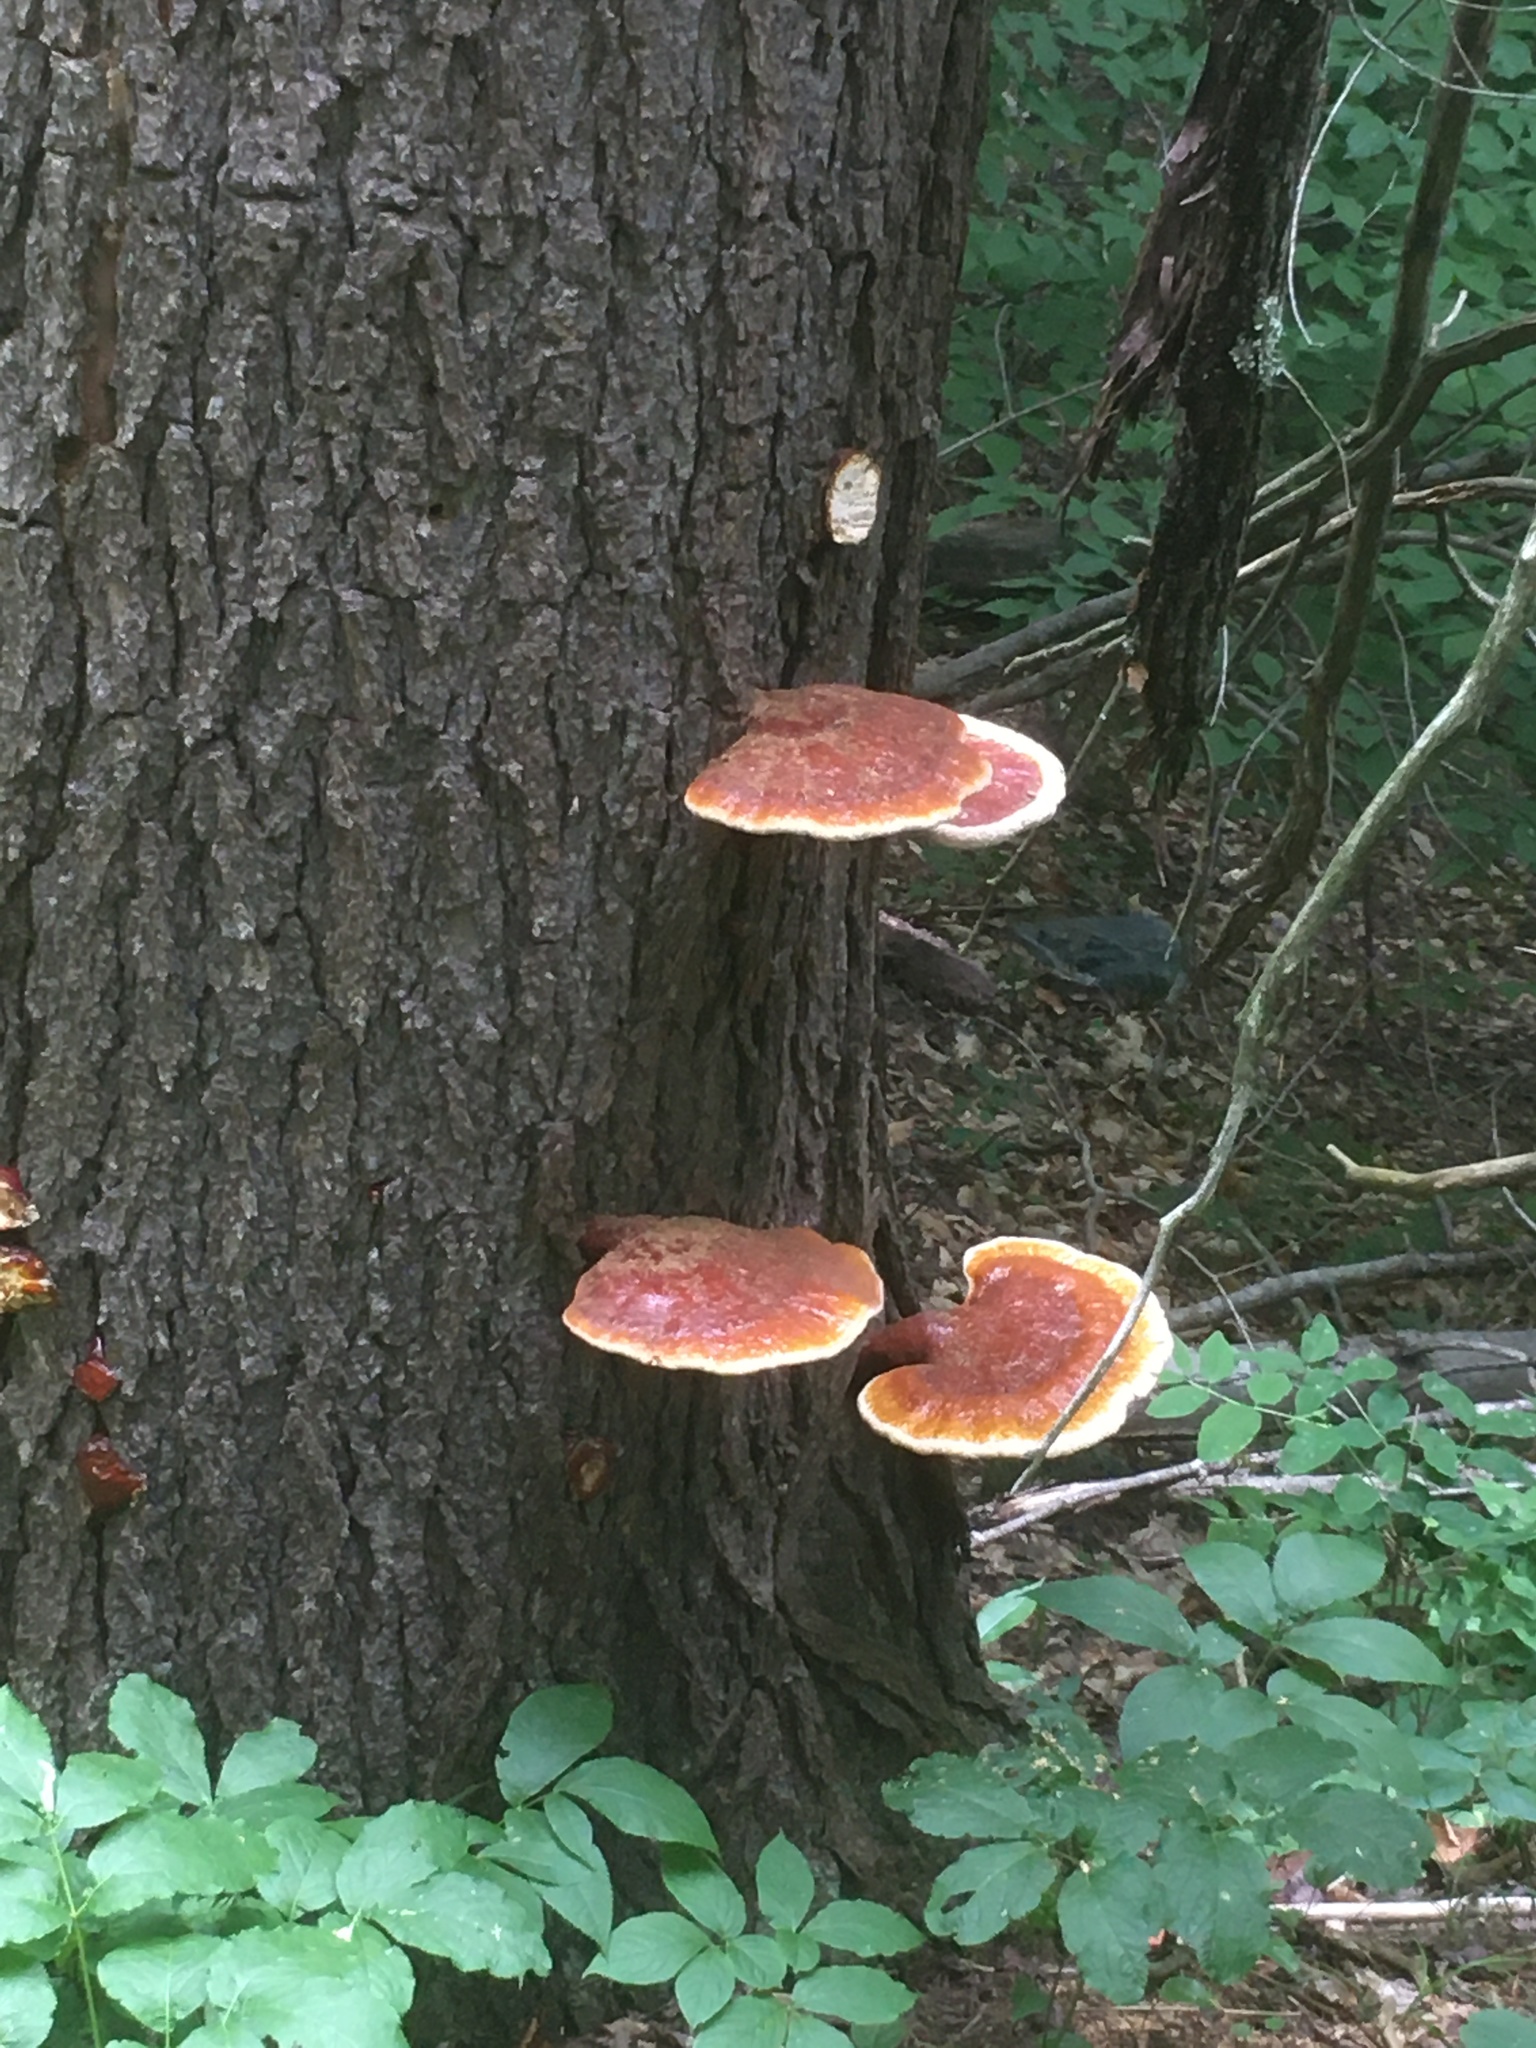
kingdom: Fungi
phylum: Basidiomycota
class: Agaricomycetes
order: Polyporales
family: Polyporaceae
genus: Ganoderma
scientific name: Ganoderma tsugae
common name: Hemlock varnish shelf
